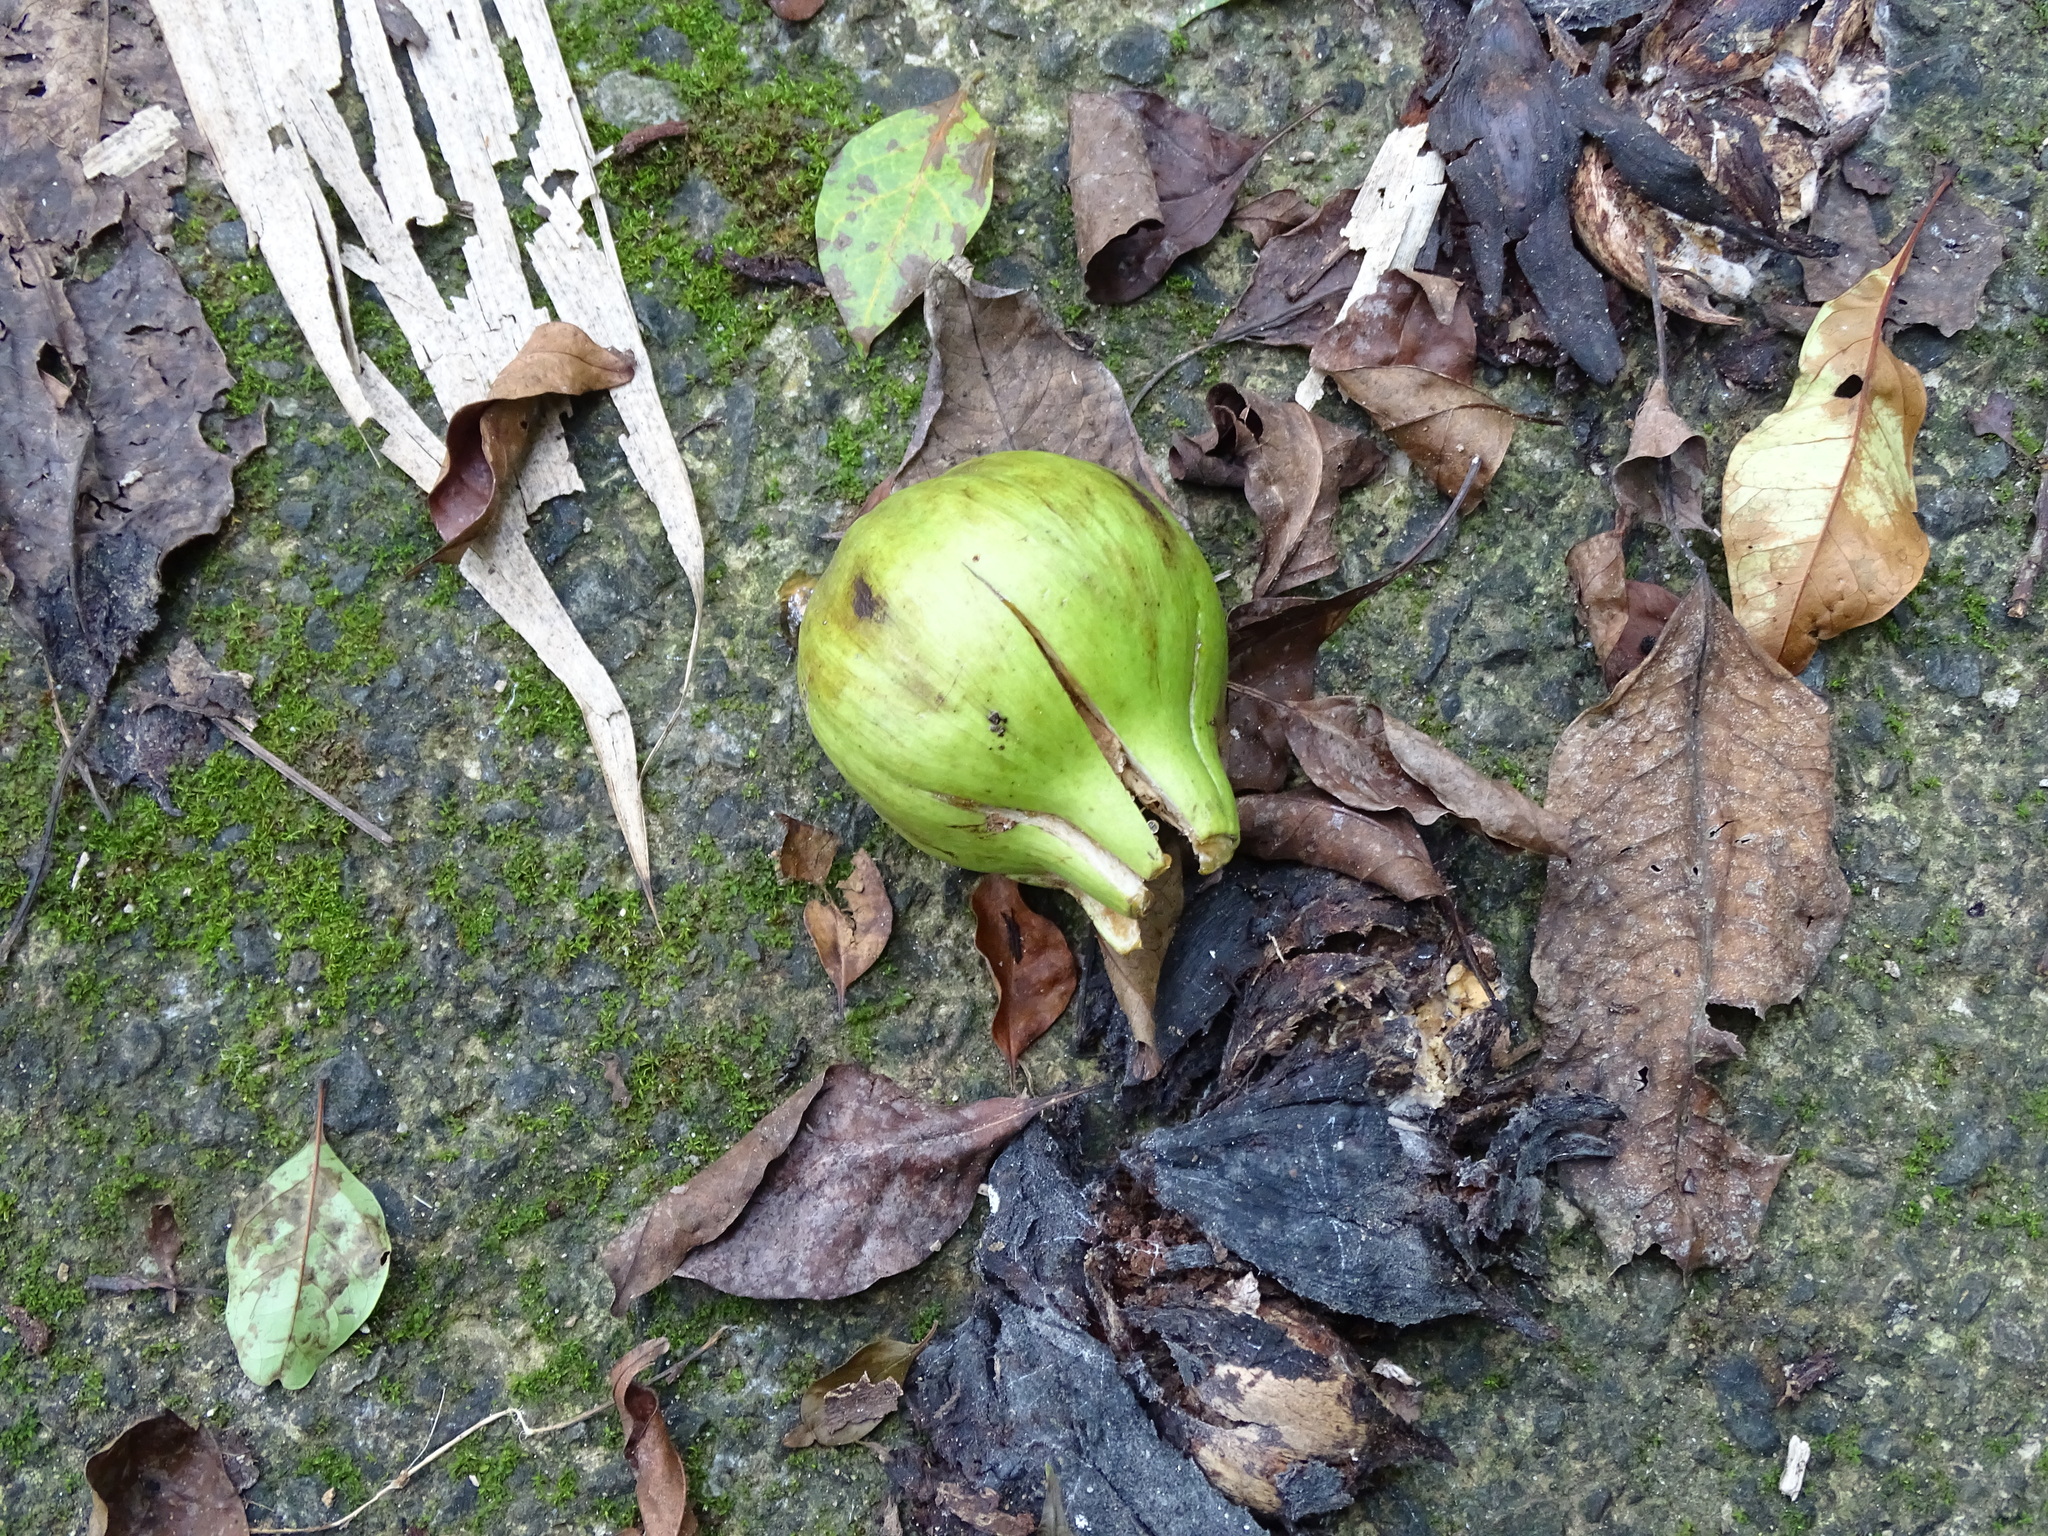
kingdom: Plantae
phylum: Tracheophyta
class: Magnoliopsida
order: Malpighiales
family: Euphorbiaceae
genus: Vernicia
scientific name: Vernicia fordii
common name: Tungoil tree
